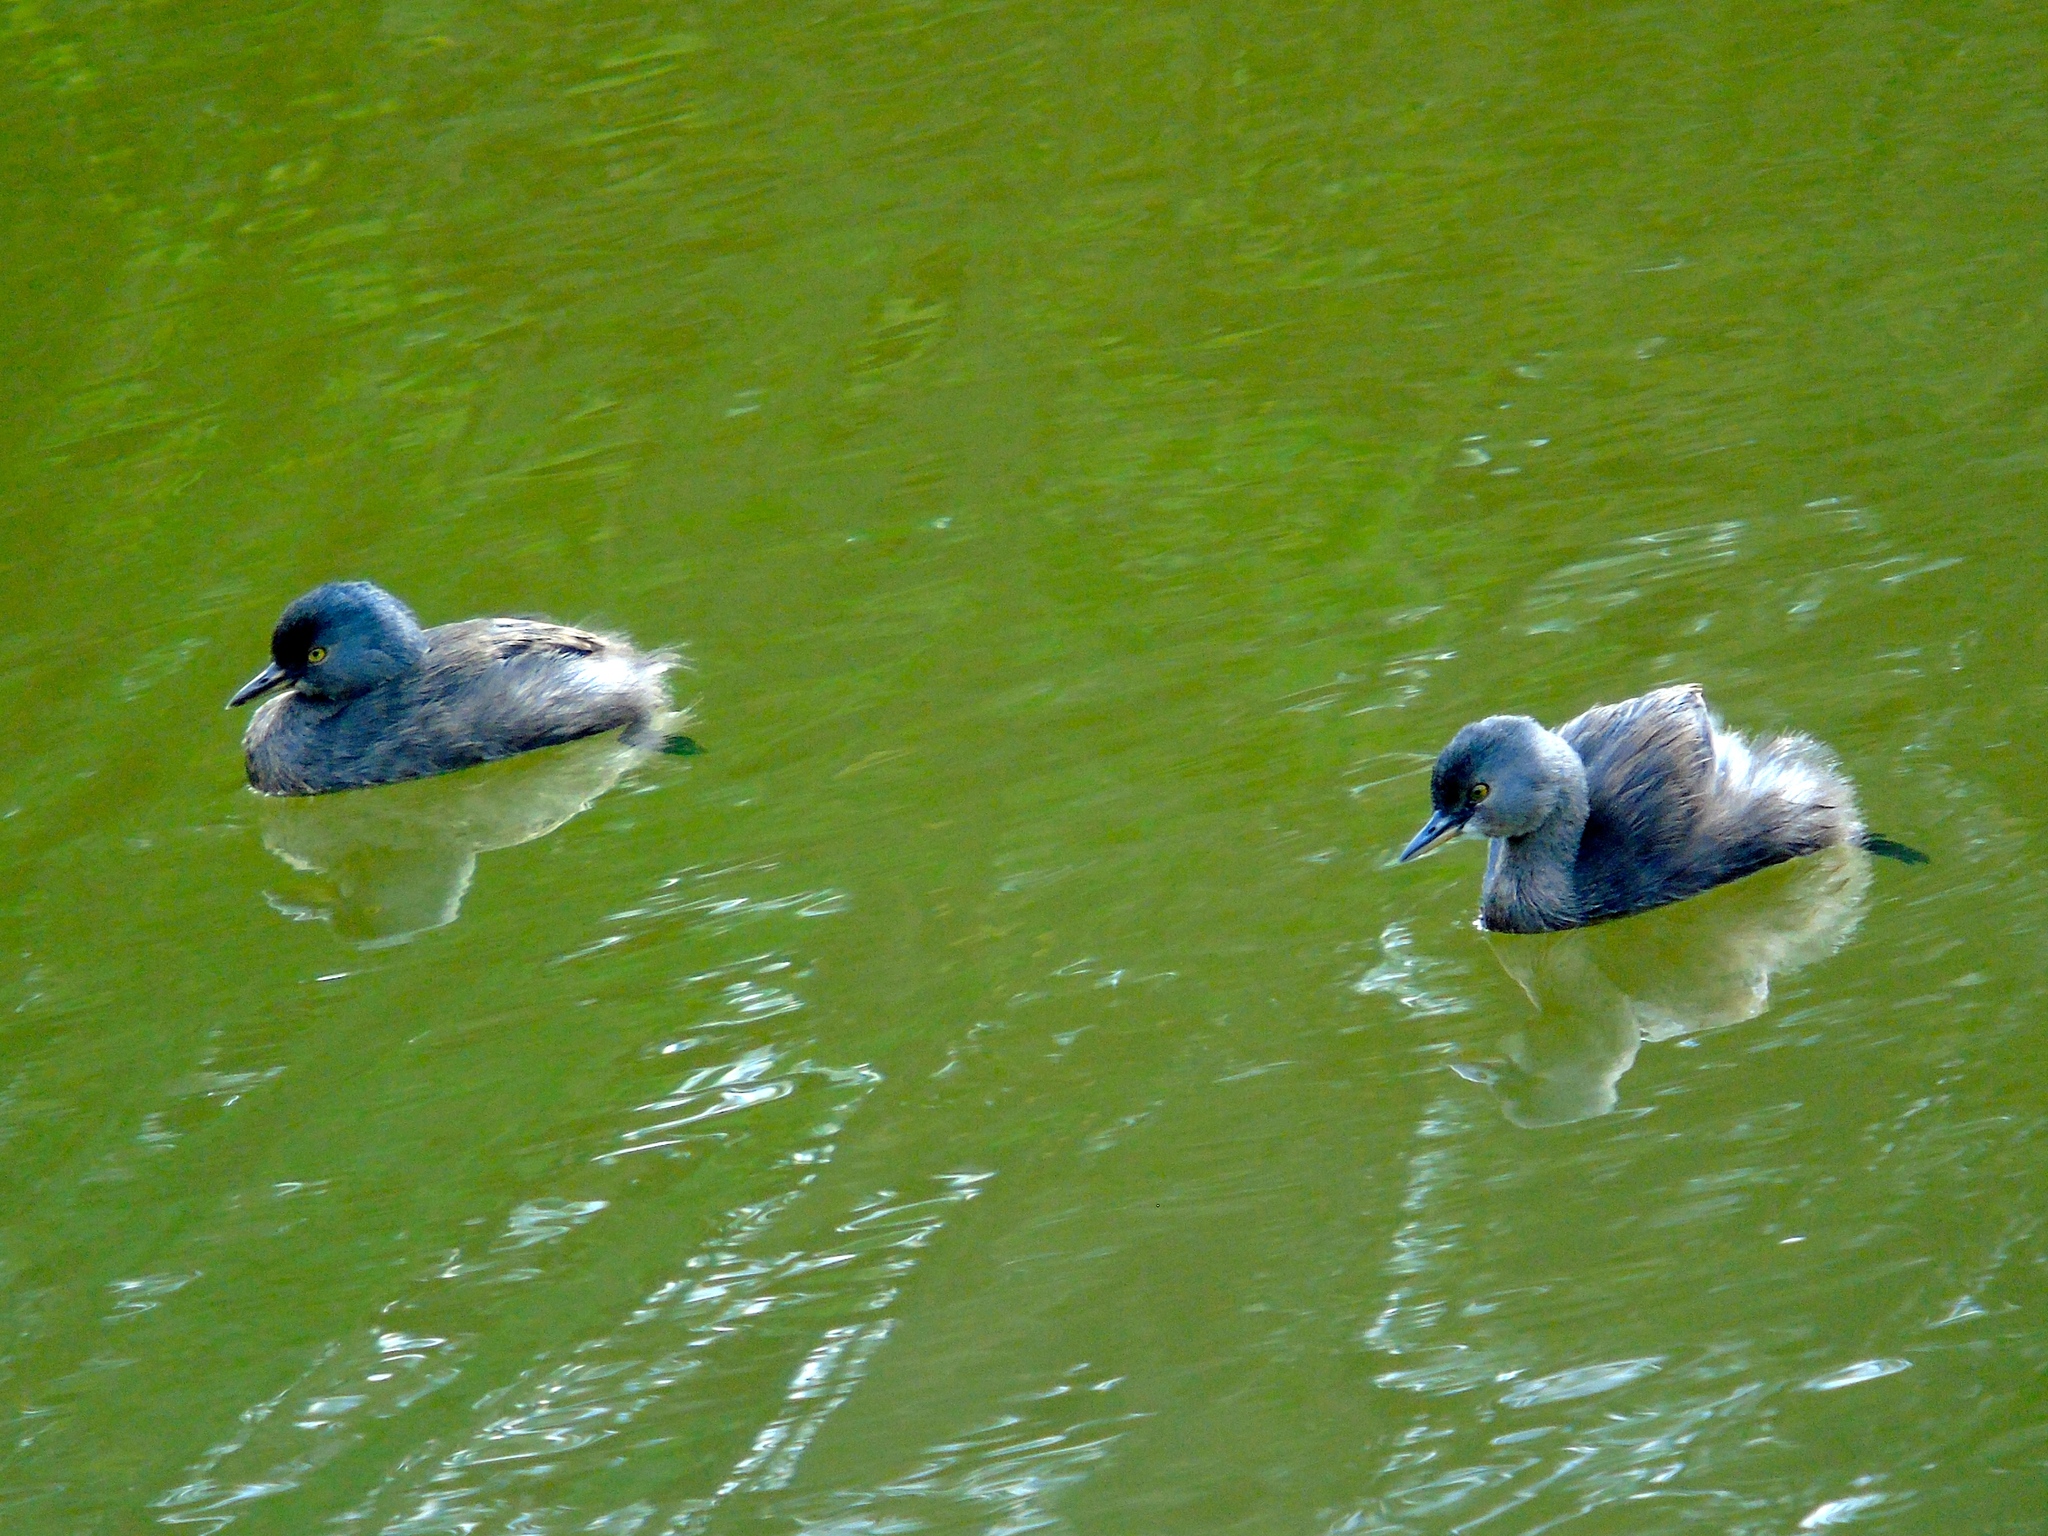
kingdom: Animalia
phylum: Chordata
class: Aves
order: Podicipediformes
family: Podicipedidae
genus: Tachybaptus
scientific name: Tachybaptus dominicus
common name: Least grebe
